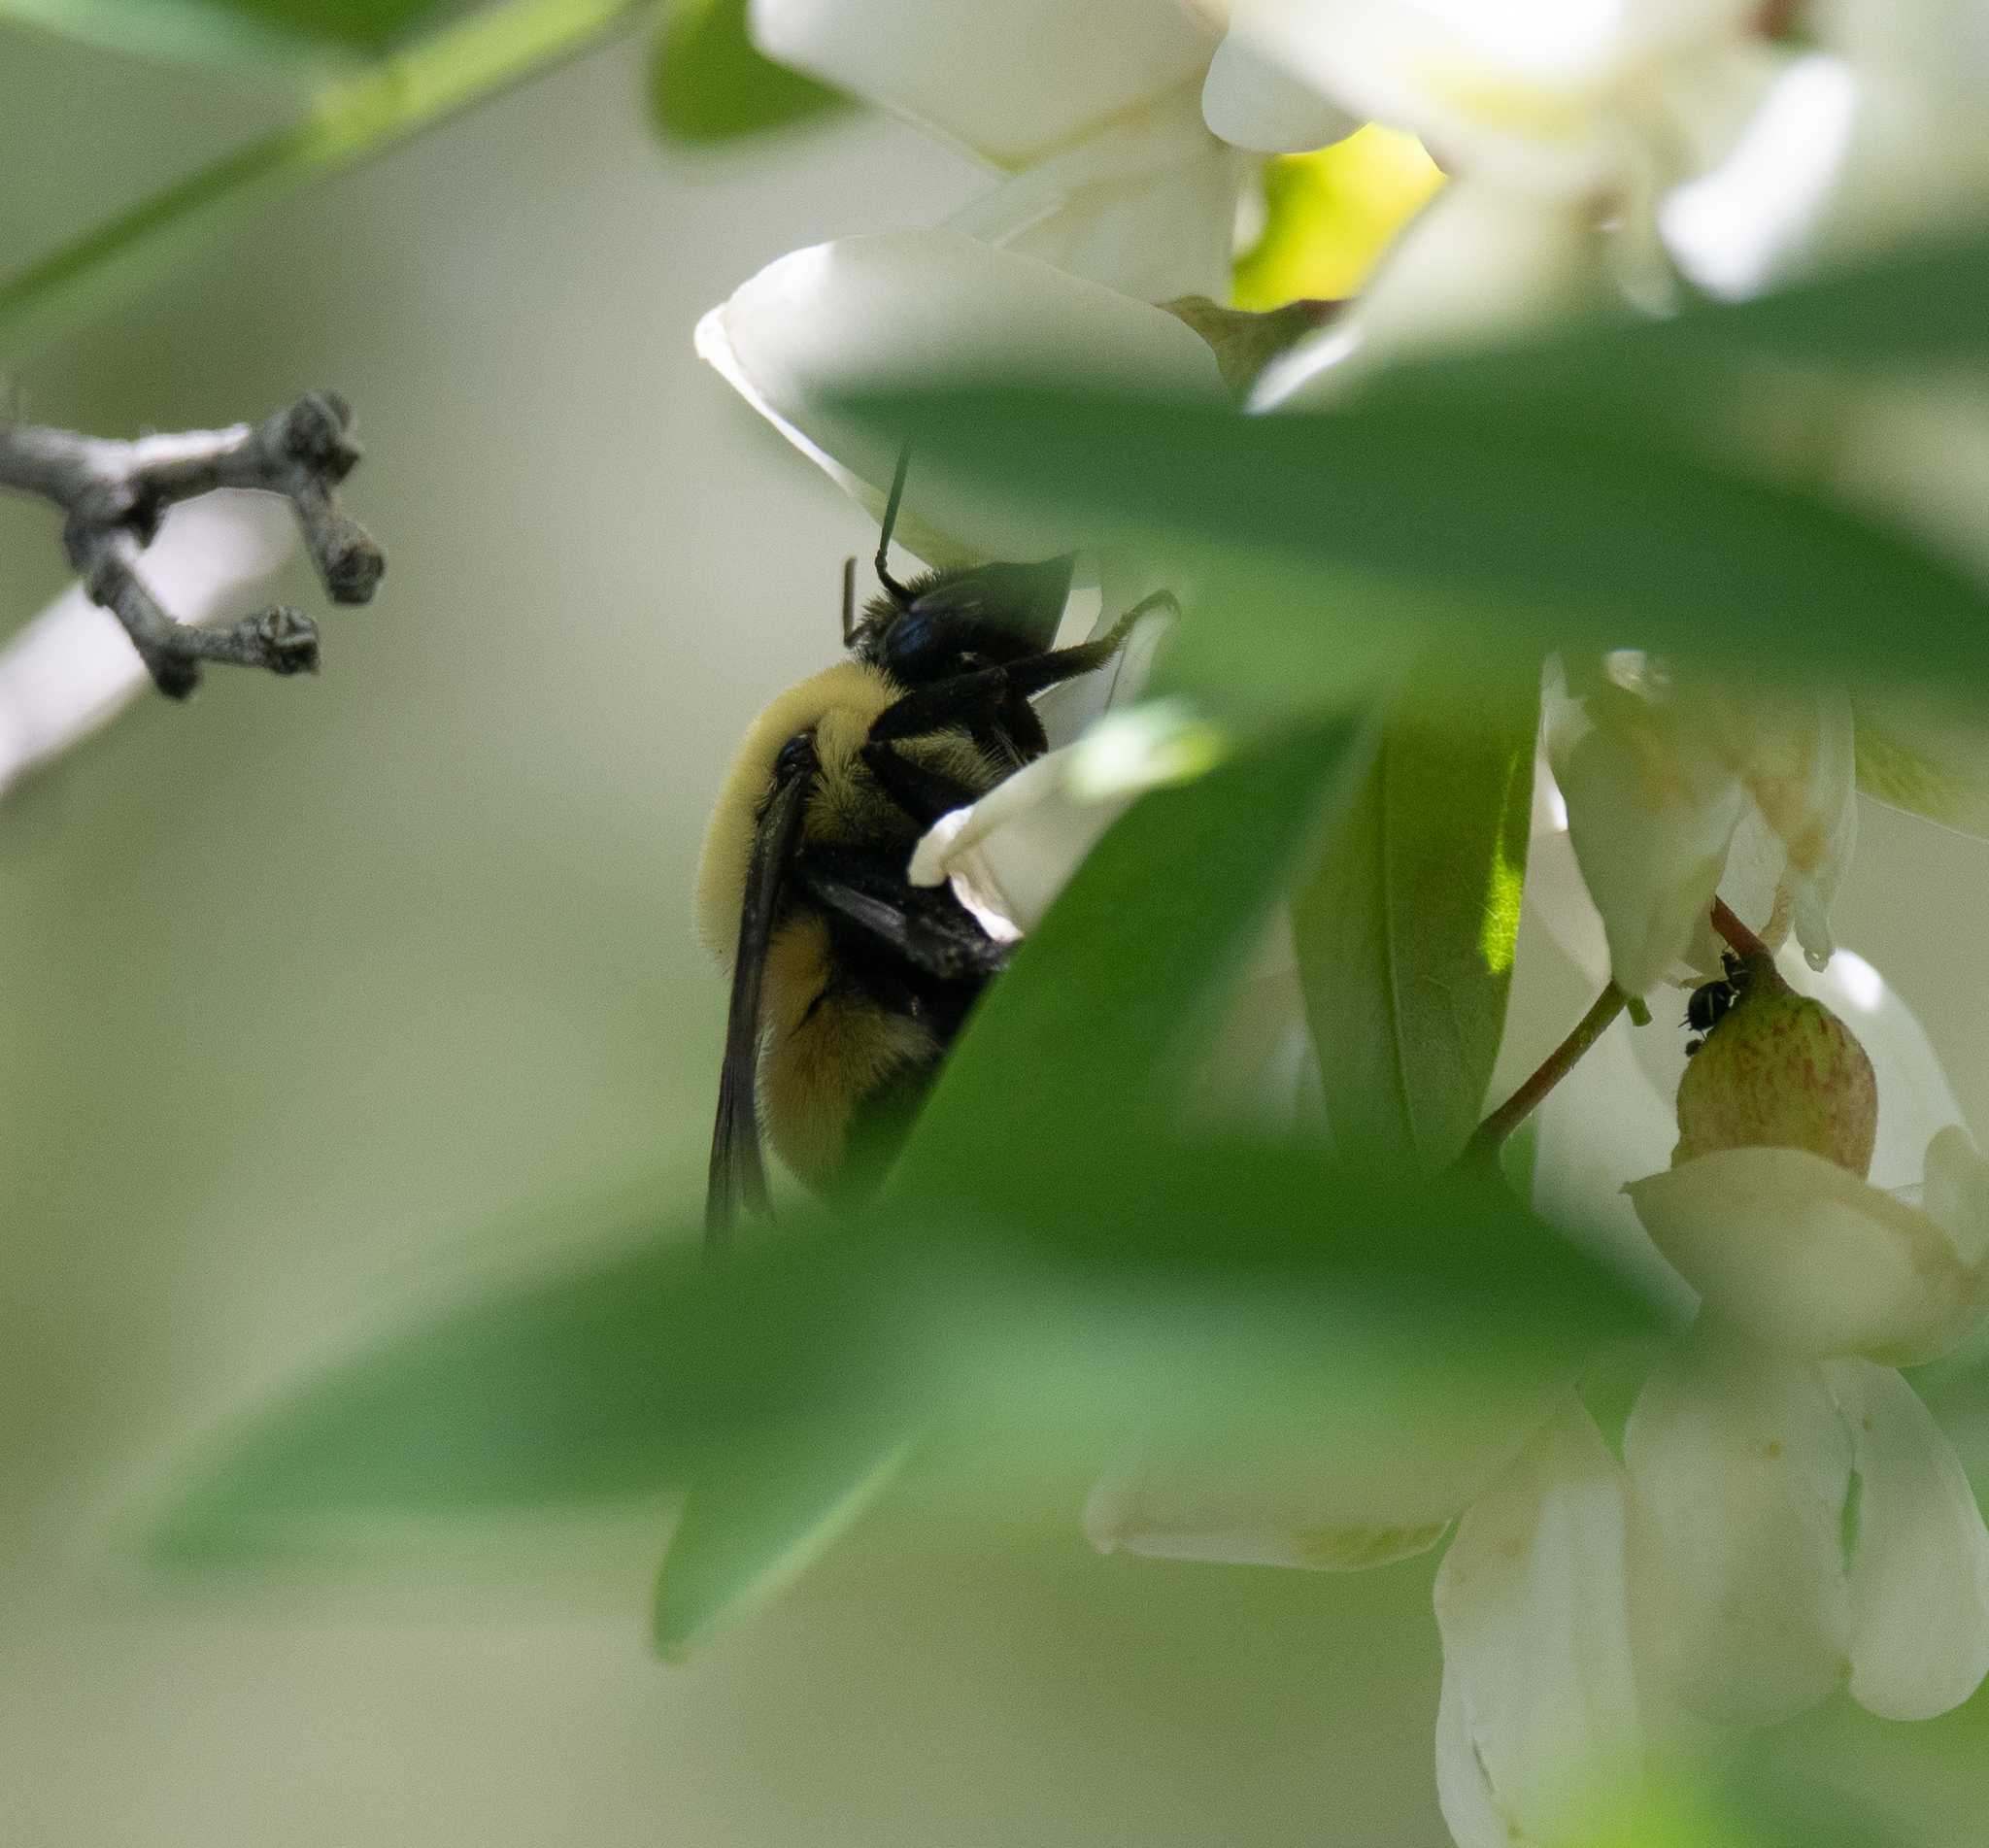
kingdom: Animalia
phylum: Arthropoda
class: Insecta
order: Hymenoptera
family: Apidae
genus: Bombus
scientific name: Bombus griseocollis
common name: Brown-belted bumble bee
